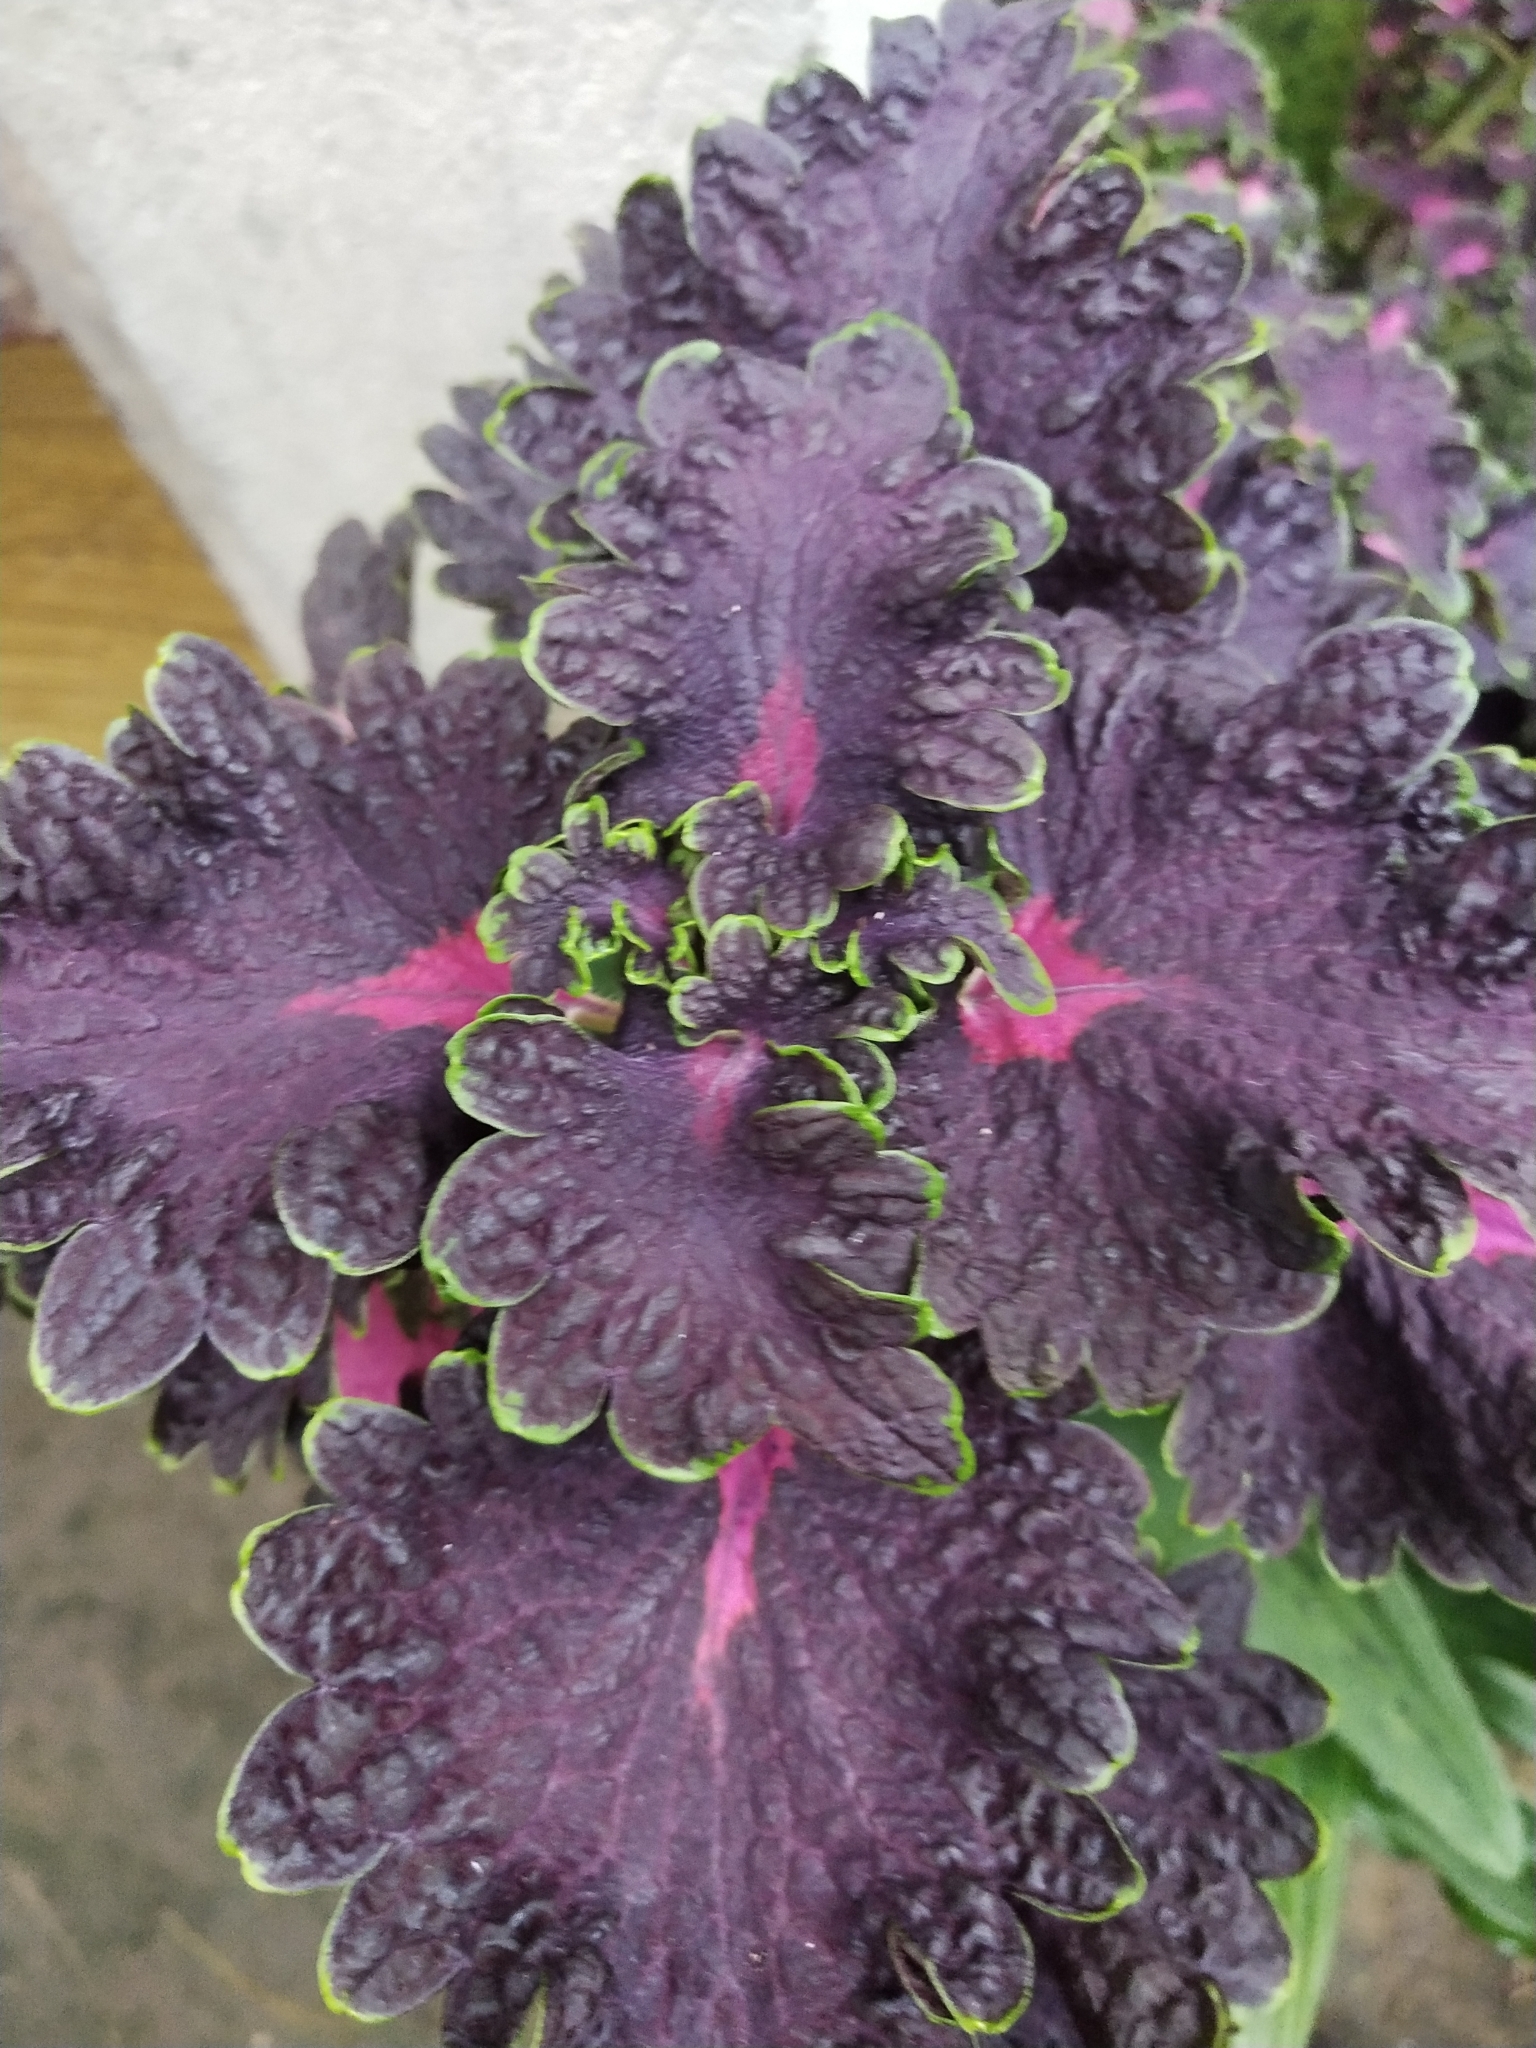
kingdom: Plantae
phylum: Tracheophyta
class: Magnoliopsida
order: Lamiales
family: Lamiaceae
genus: Coleus
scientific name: Coleus scutellarioides
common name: Coleus
